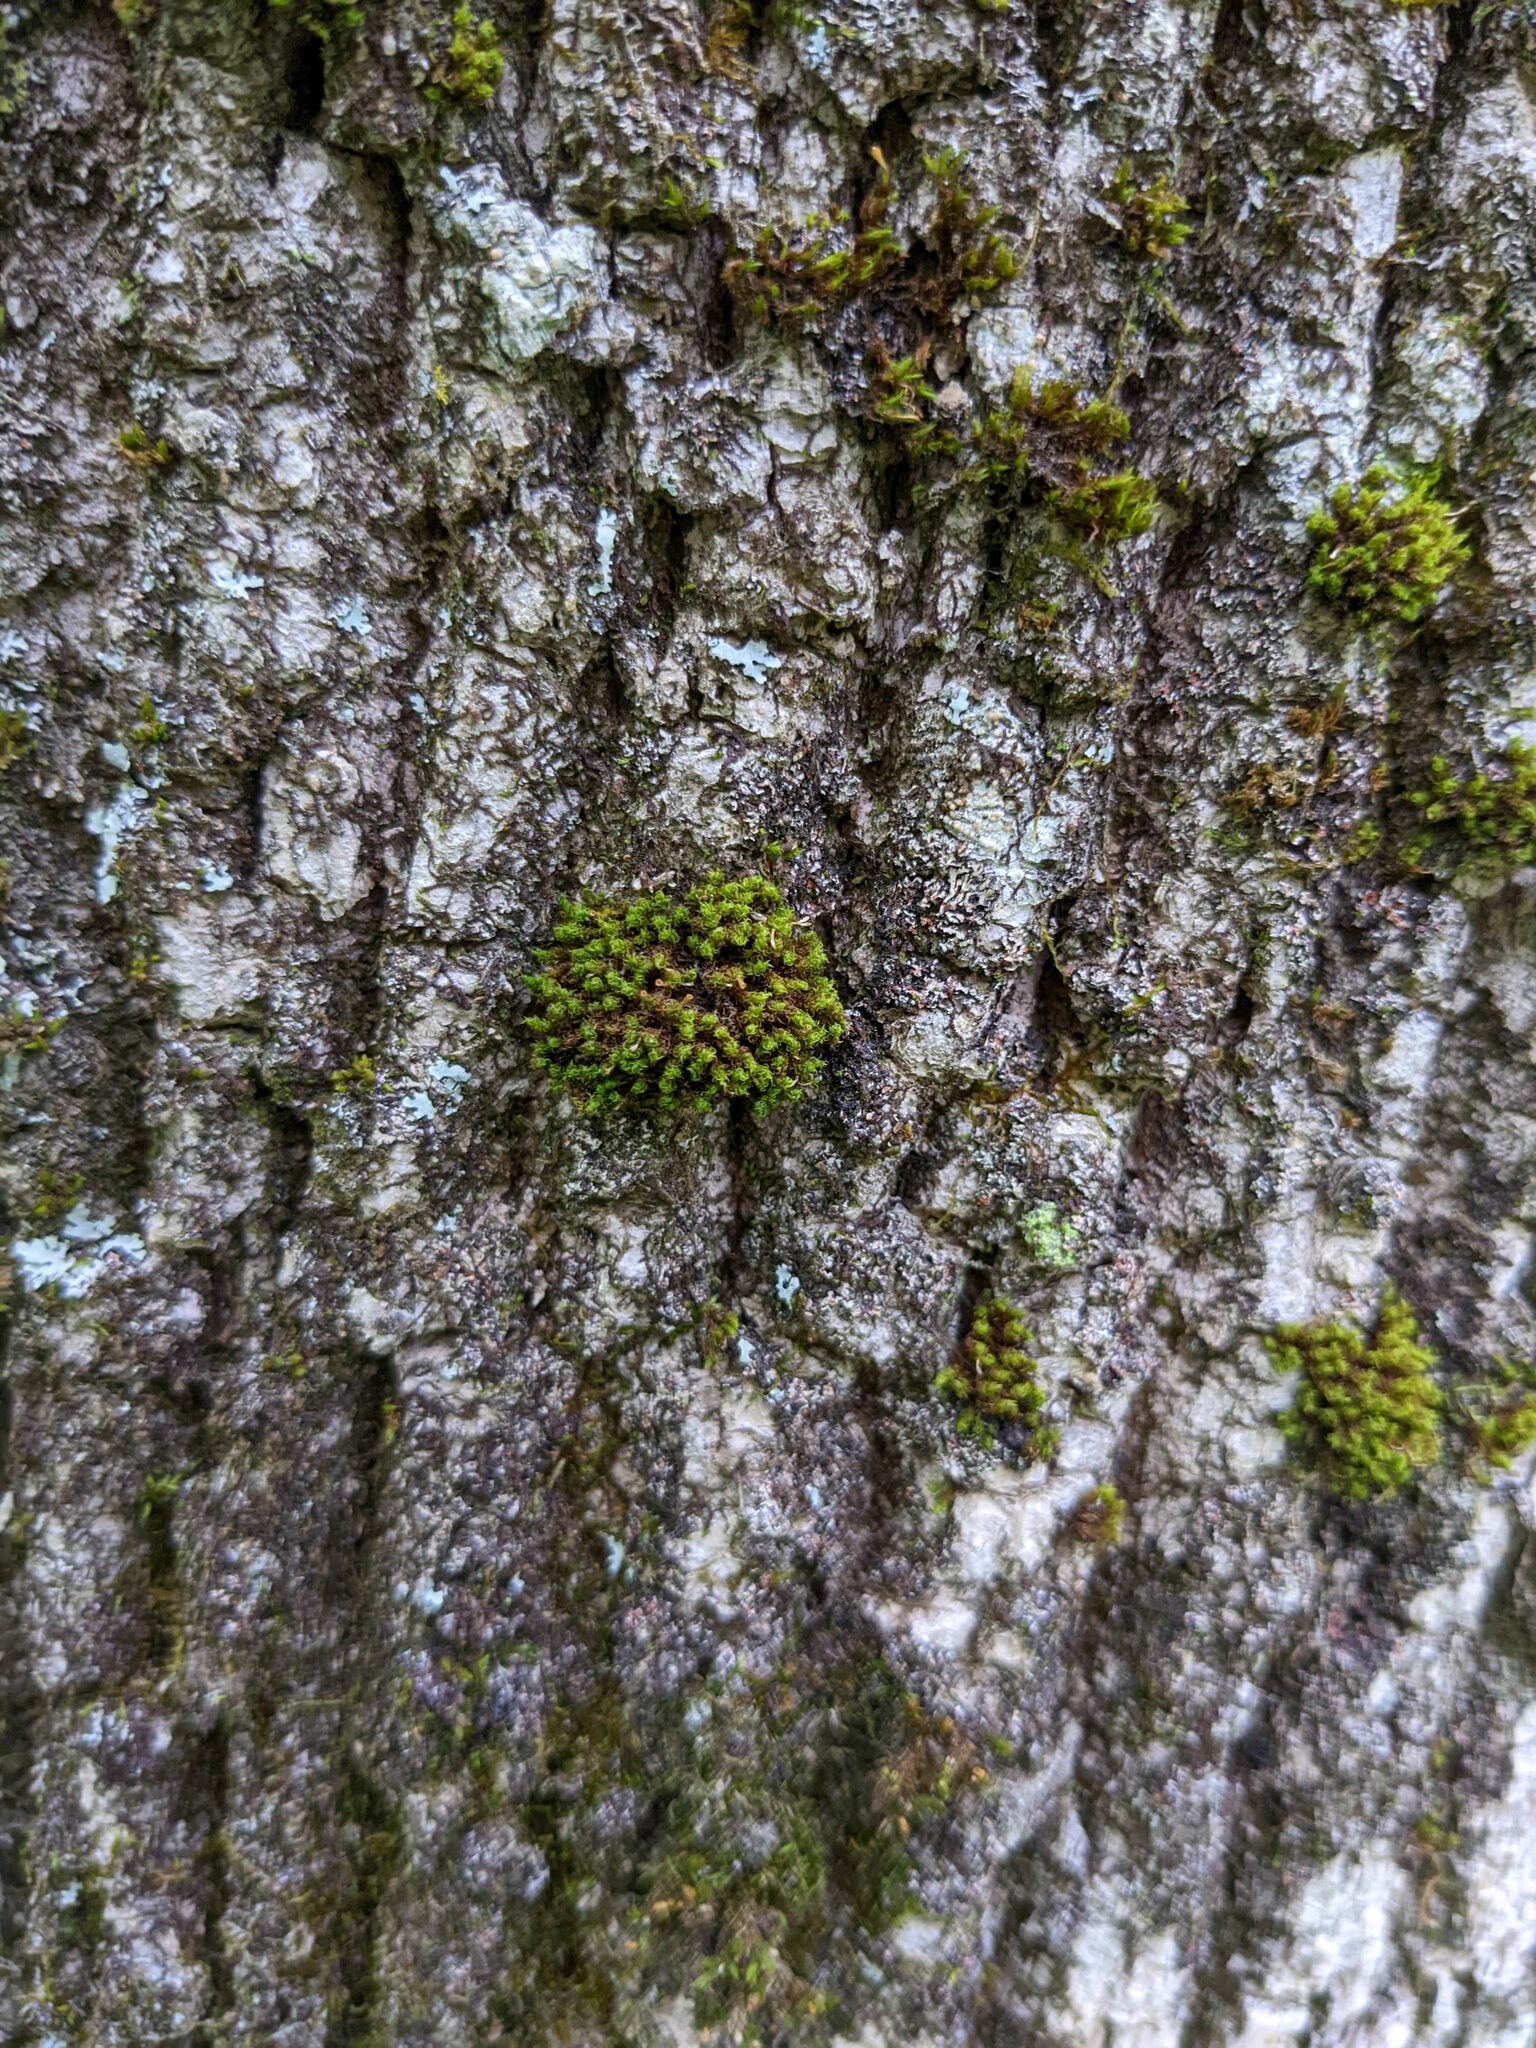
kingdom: Plantae
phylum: Bryophyta
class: Bryopsida
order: Orthotrichales
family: Orthotrichaceae
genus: Ulota
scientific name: Ulota crispa
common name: Crisped pincushion moss
